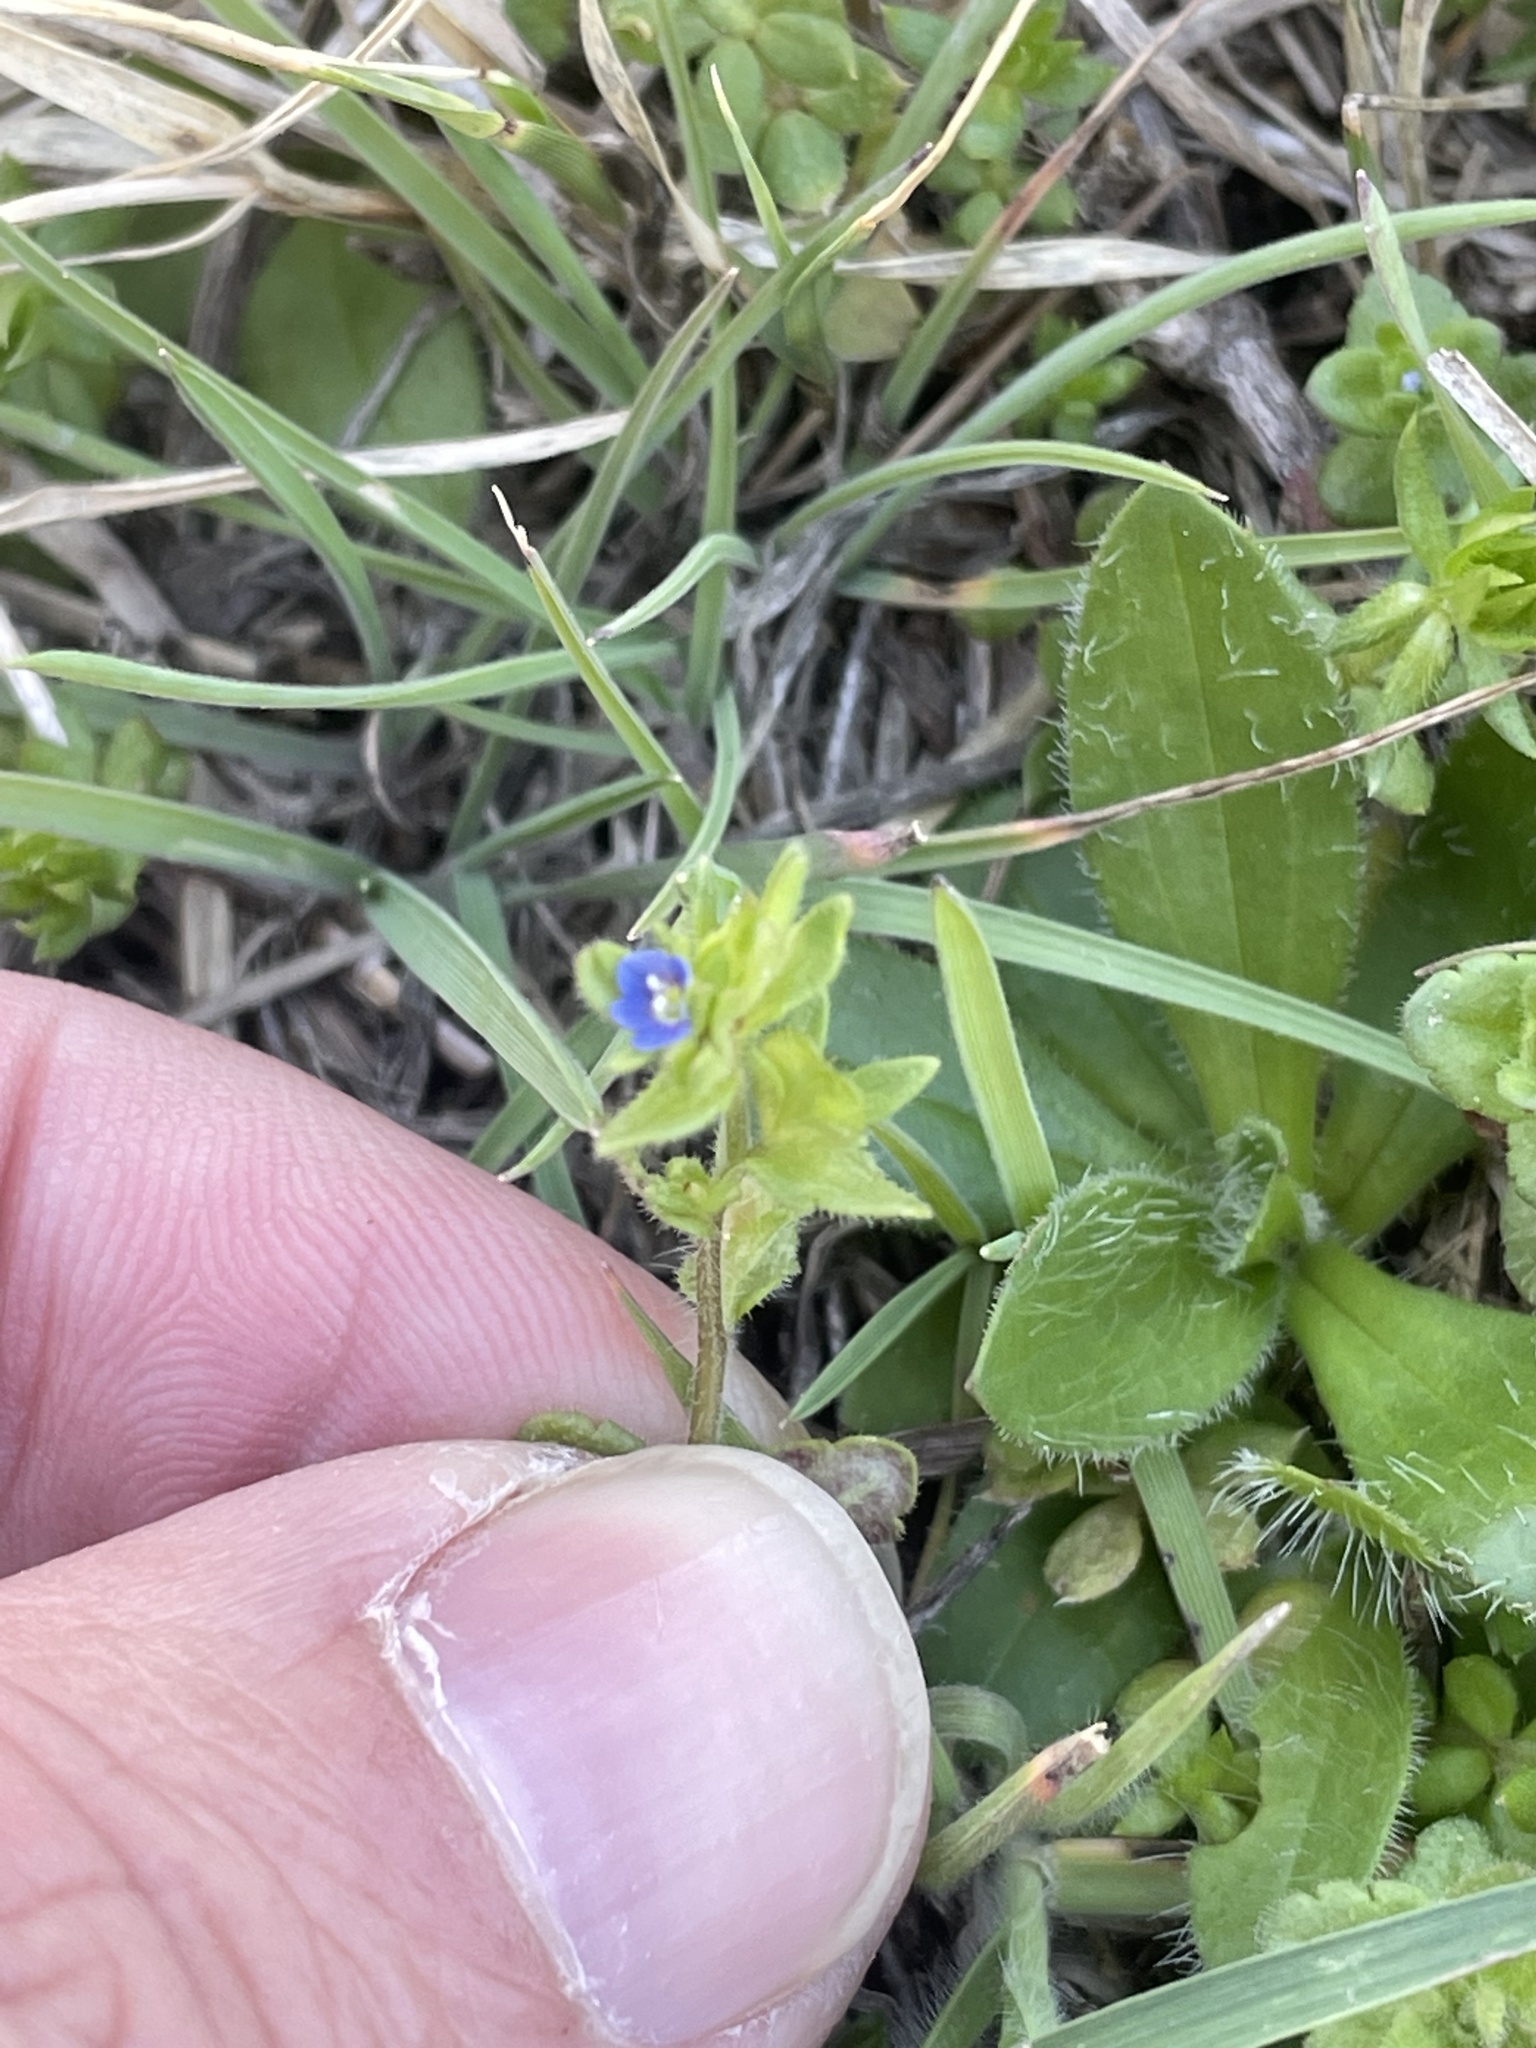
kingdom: Plantae
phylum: Tracheophyta
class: Magnoliopsida
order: Lamiales
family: Plantaginaceae
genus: Veronica
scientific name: Veronica arvensis
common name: Corn speedwell
